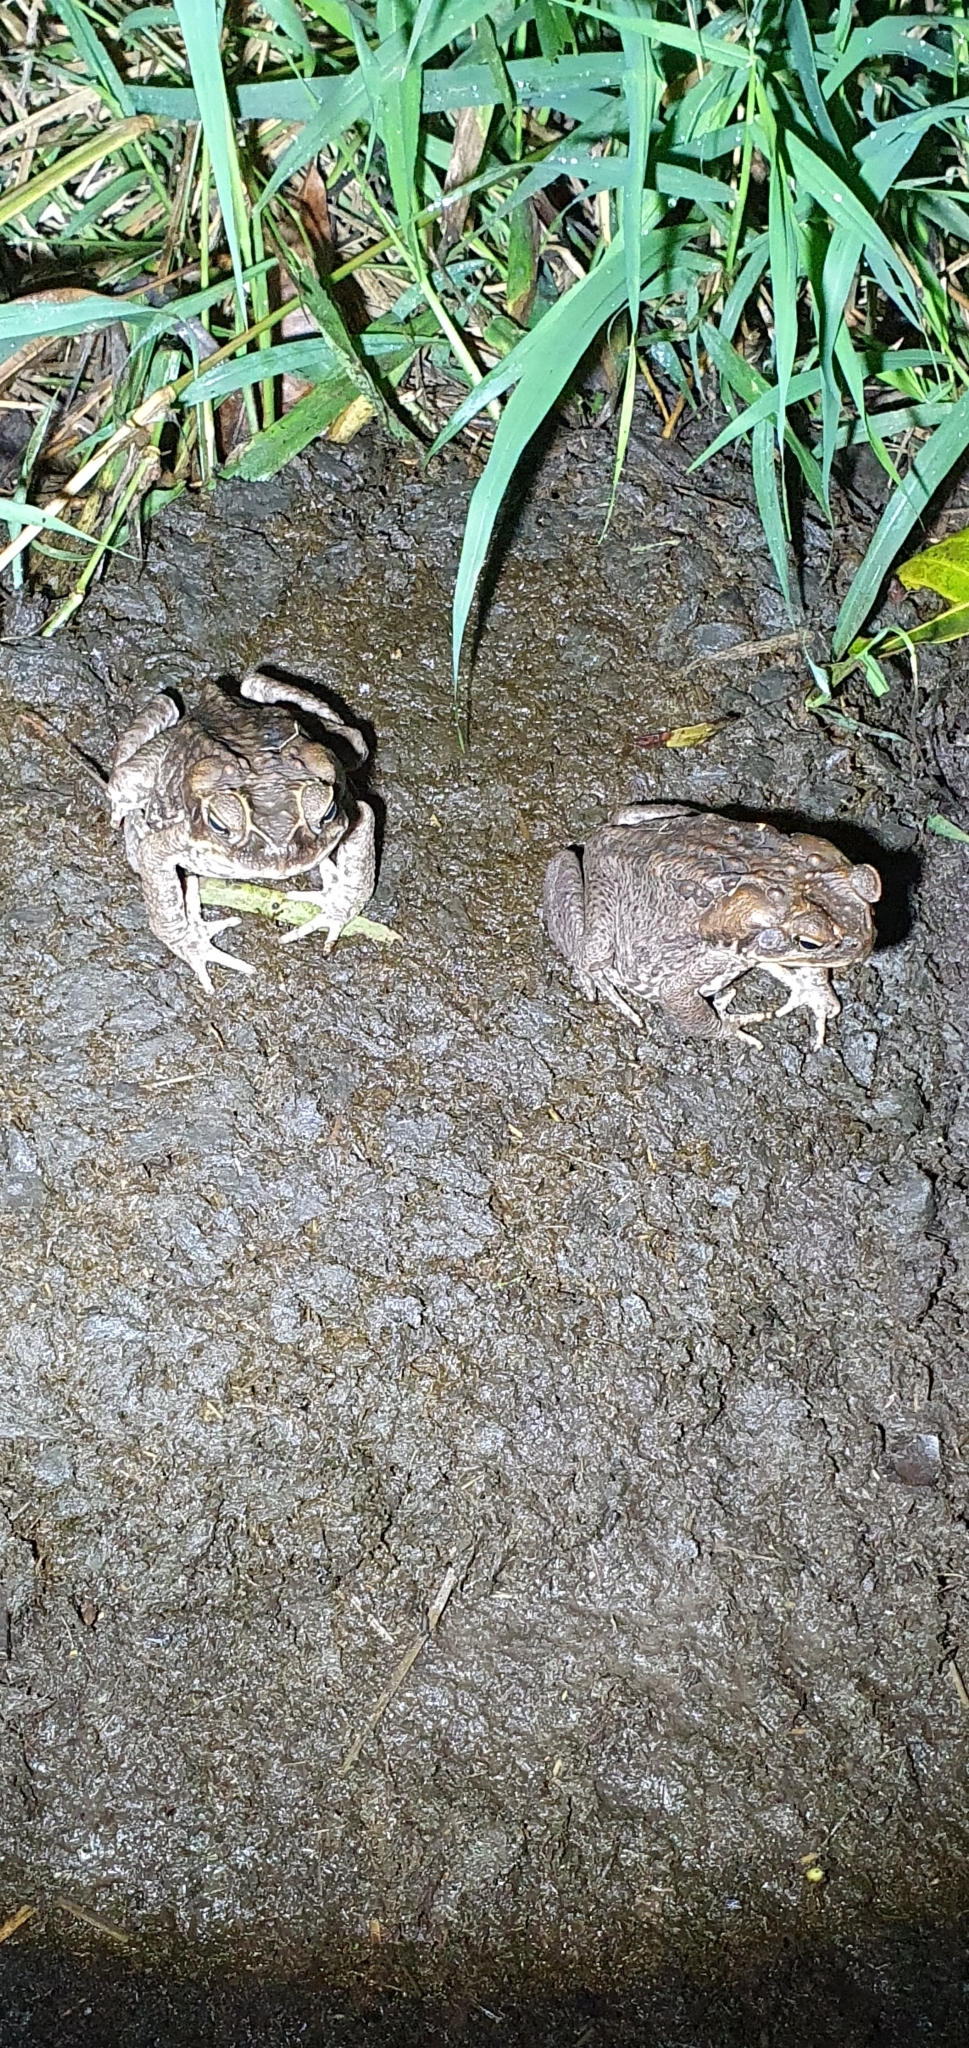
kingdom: Animalia
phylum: Chordata
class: Amphibia
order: Anura
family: Bufonidae
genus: Rhinella
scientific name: Rhinella marina
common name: Cane toad
